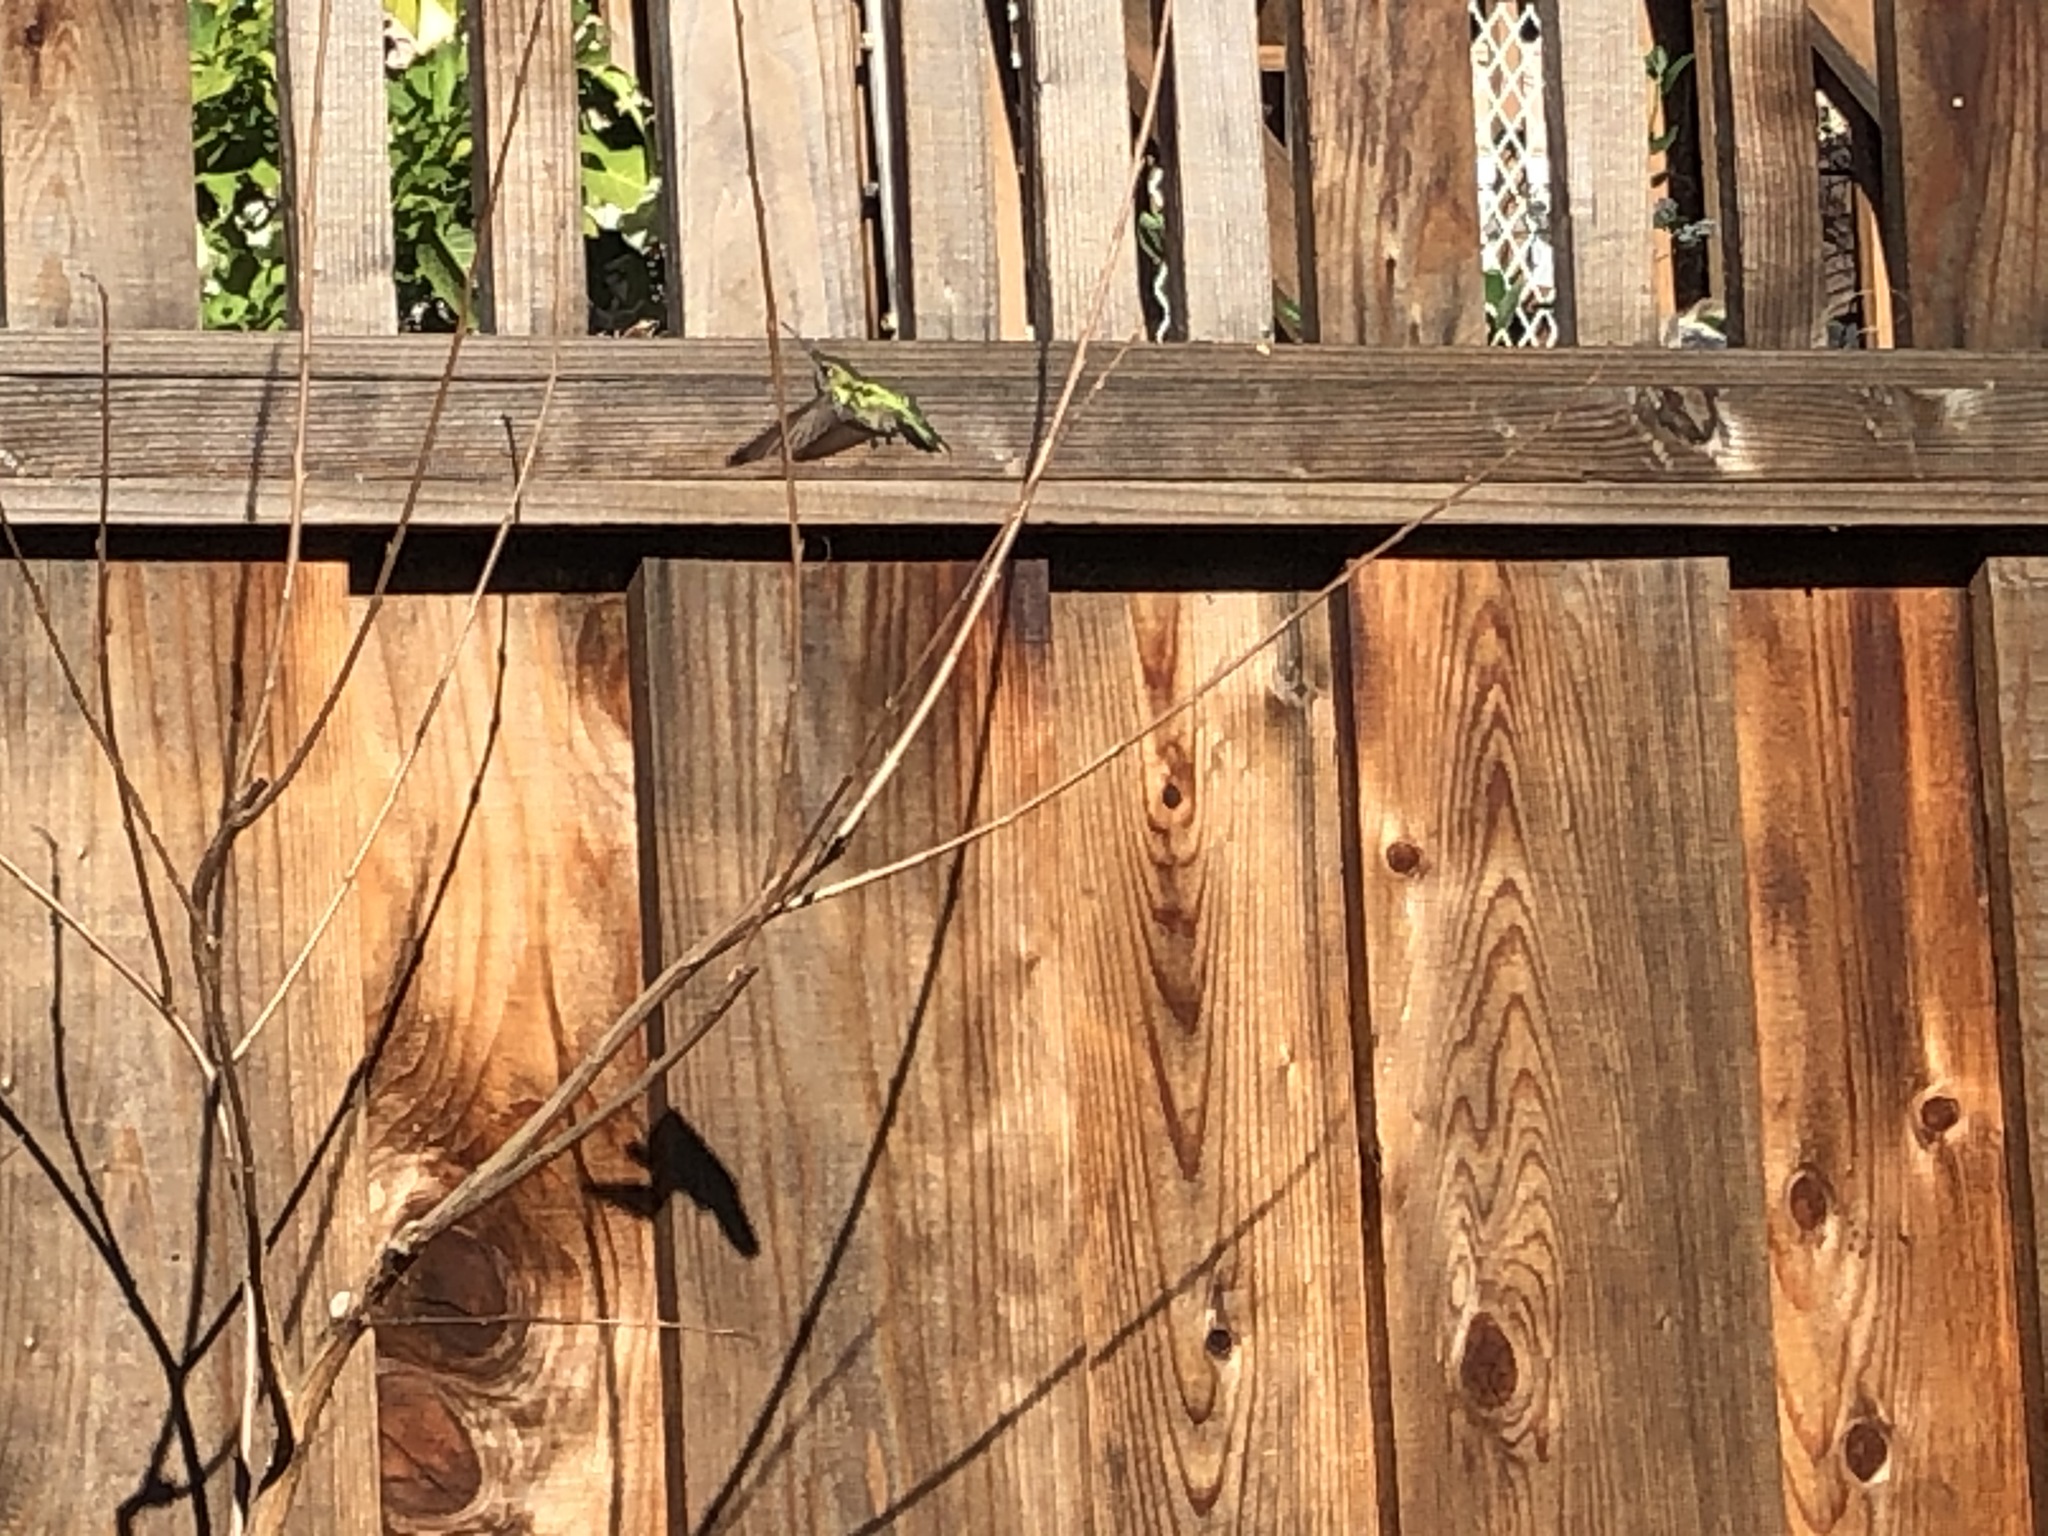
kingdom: Animalia
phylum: Chordata
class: Aves
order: Apodiformes
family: Trochilidae
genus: Calypte
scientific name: Calypte anna
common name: Anna's hummingbird
